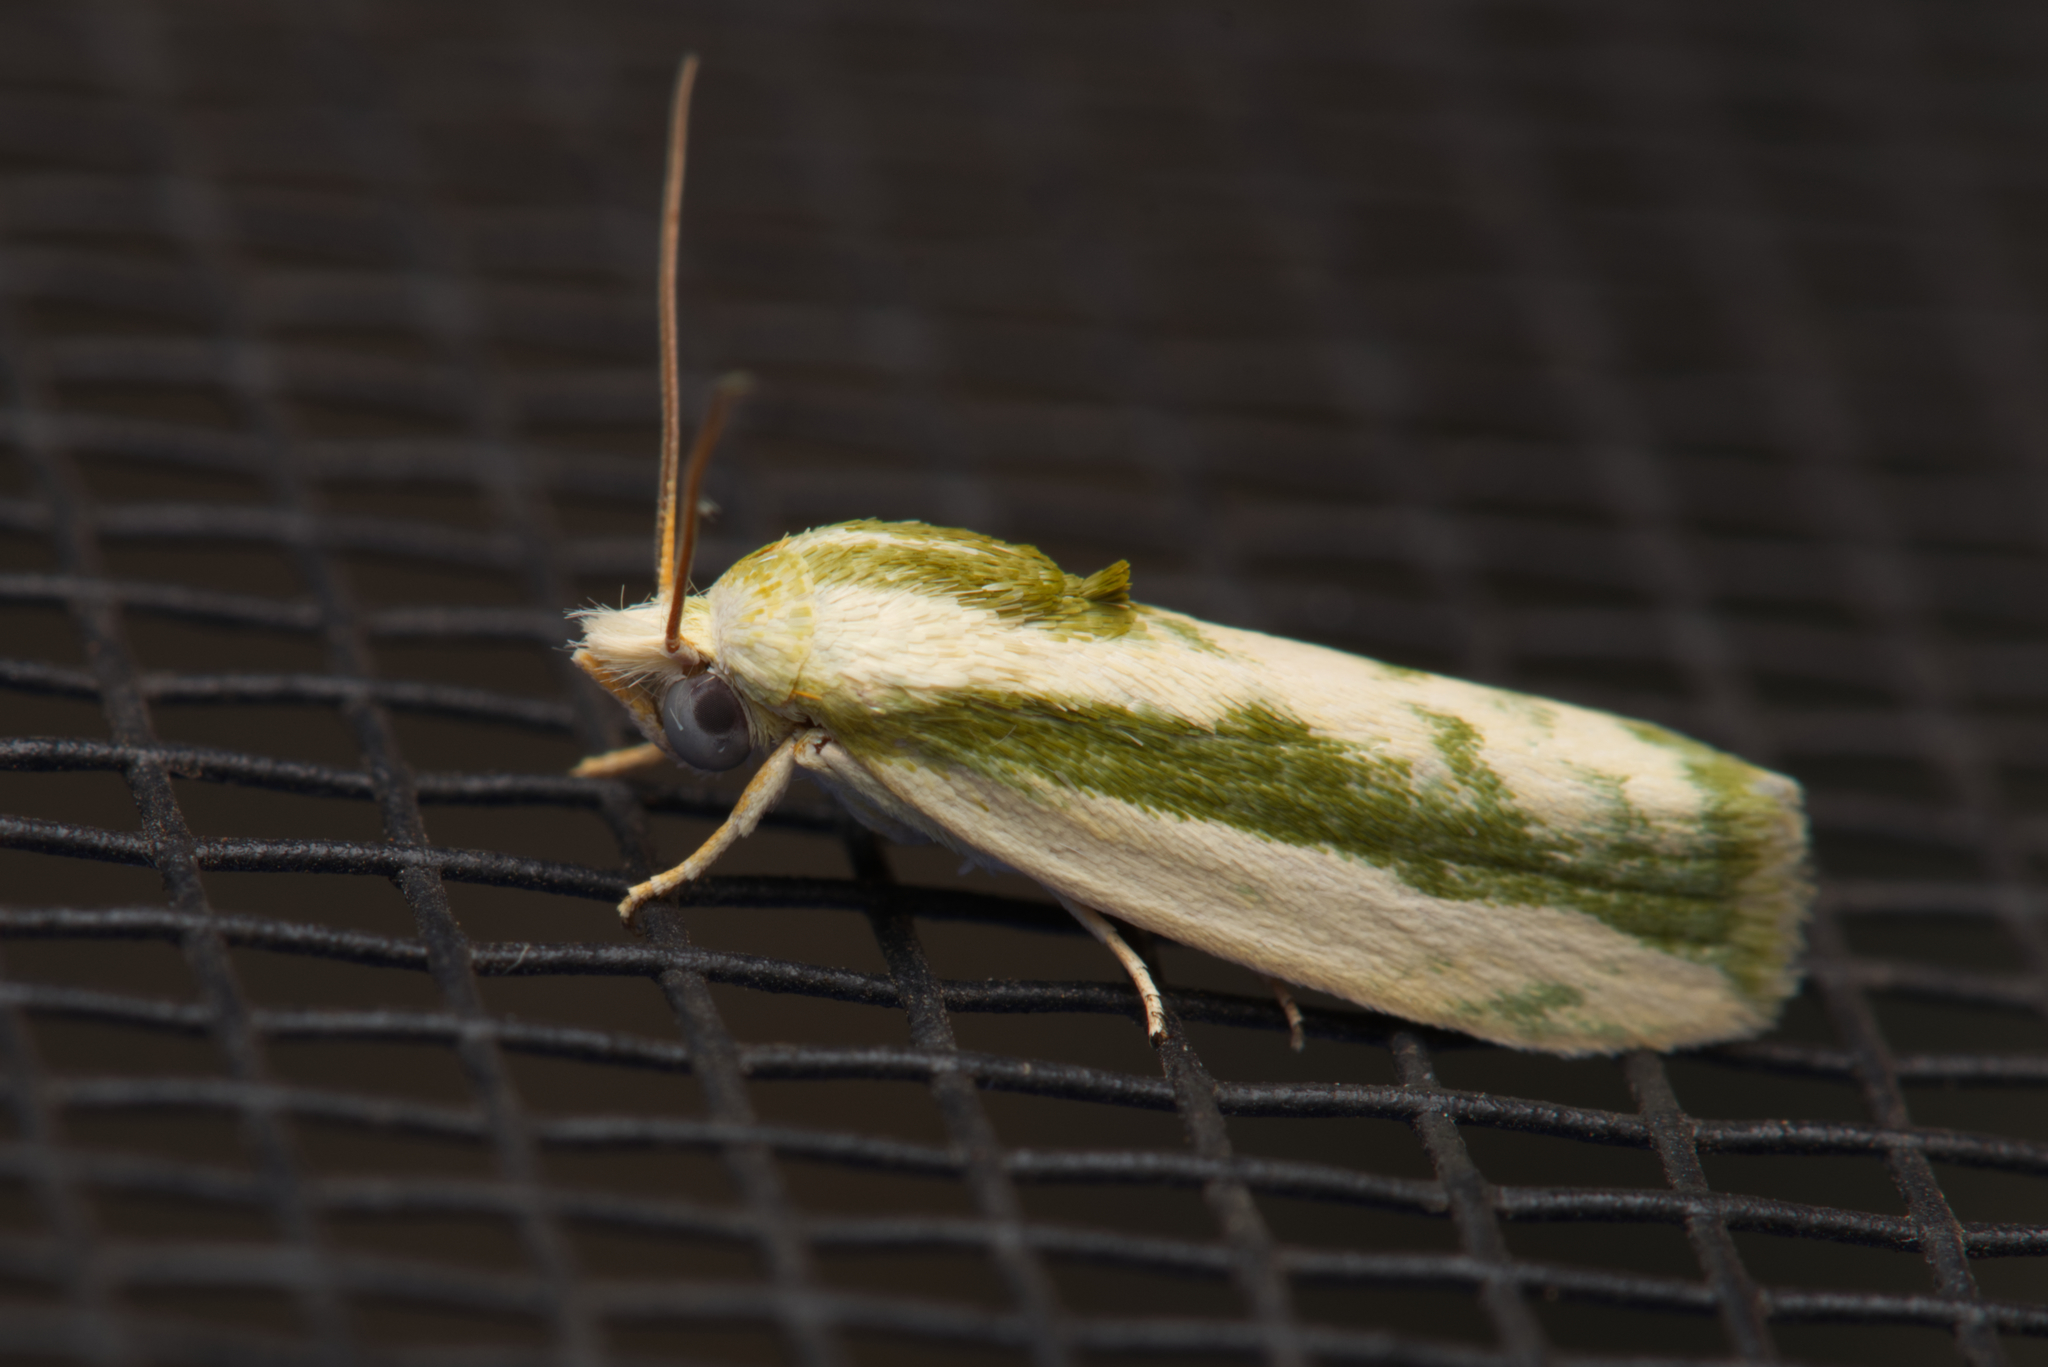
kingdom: Animalia
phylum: Arthropoda
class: Insecta
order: Lepidoptera
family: Nolidae
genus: Earias
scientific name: Earias huegeliana
